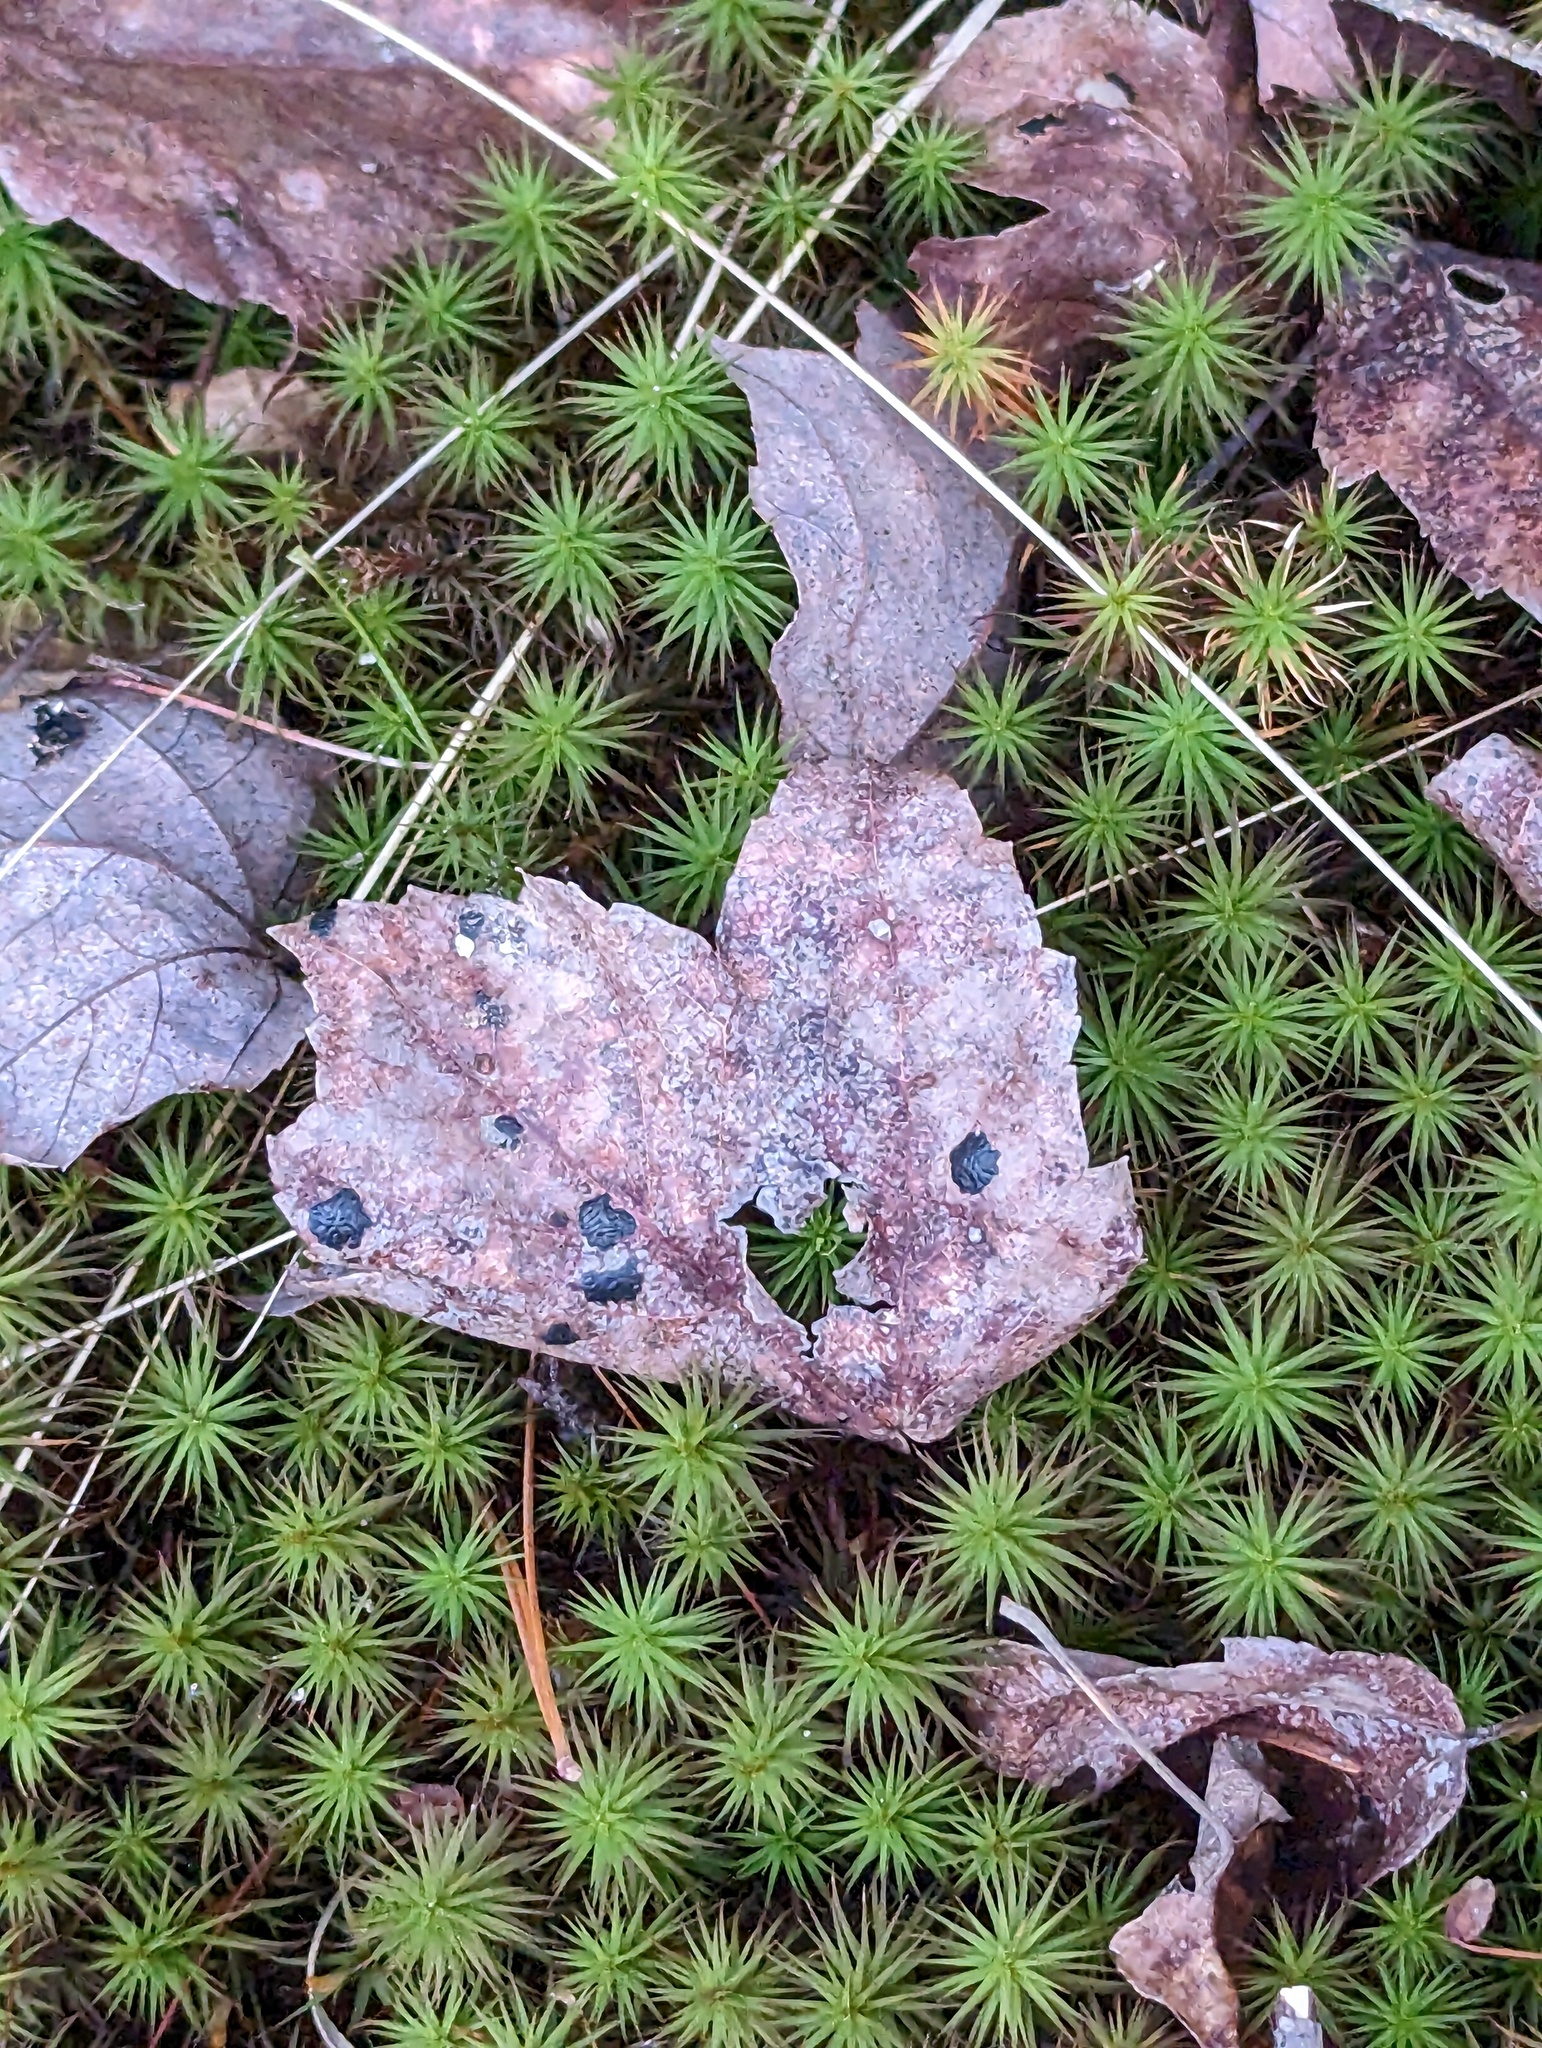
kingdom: Plantae
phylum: Tracheophyta
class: Magnoliopsida
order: Sapindales
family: Sapindaceae
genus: Acer
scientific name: Acer rubrum
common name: Red maple
